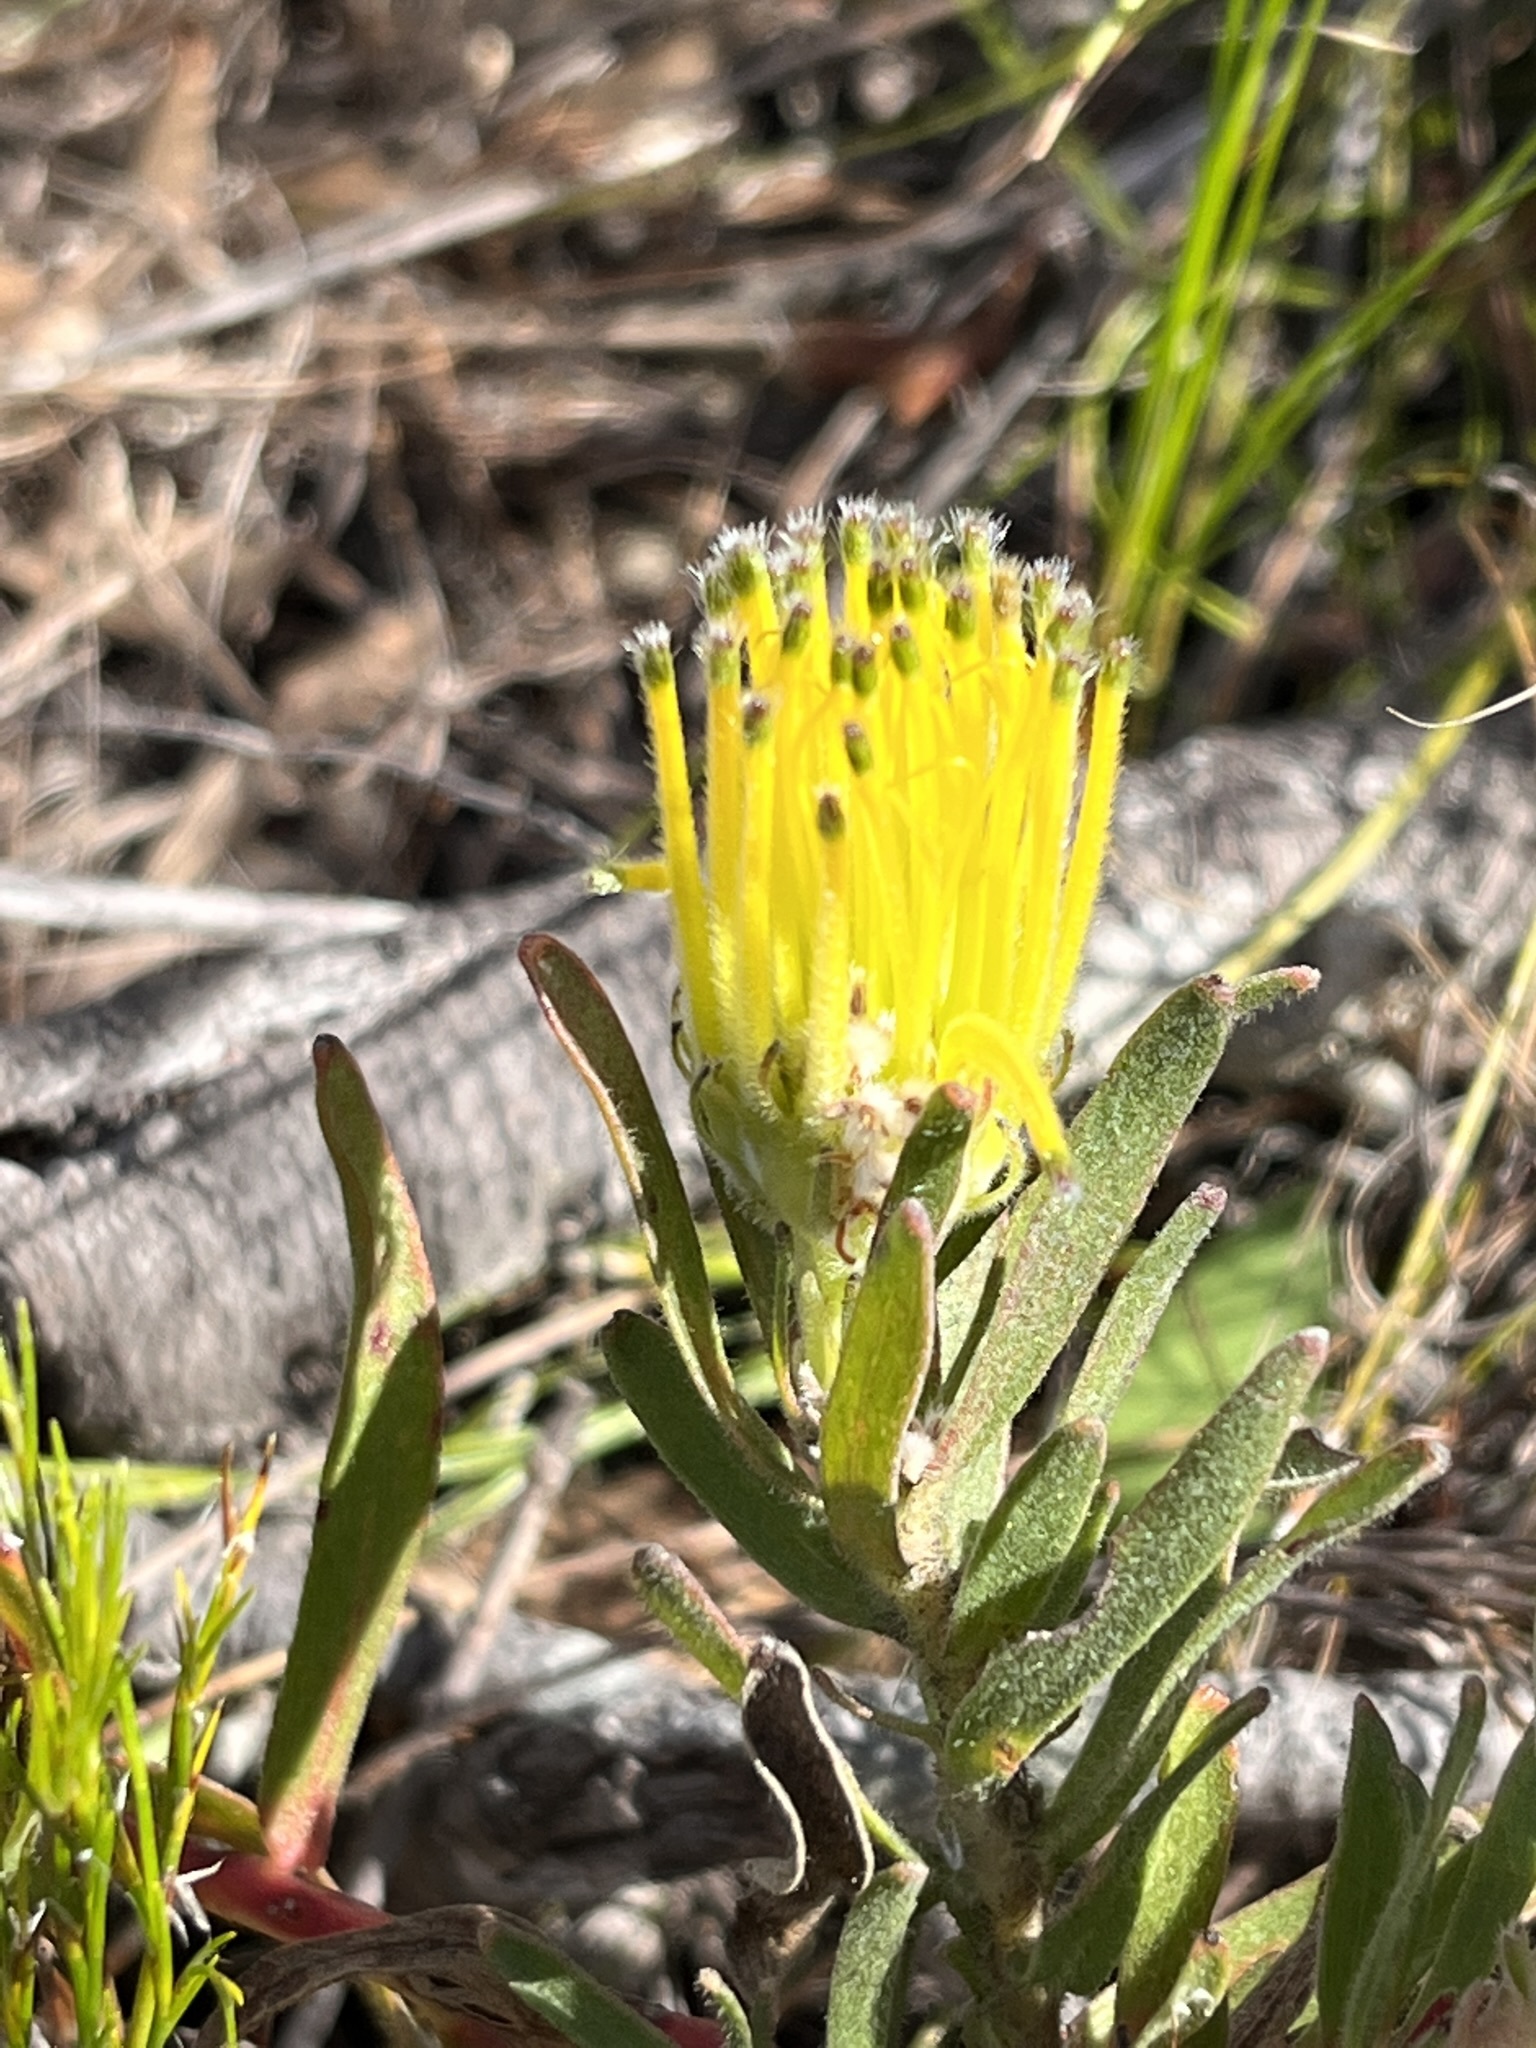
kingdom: Plantae
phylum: Tracheophyta
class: Magnoliopsida
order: Proteales
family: Proteaceae
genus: Leucospermum
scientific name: Leucospermum gracile
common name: Hermanus pincushion
